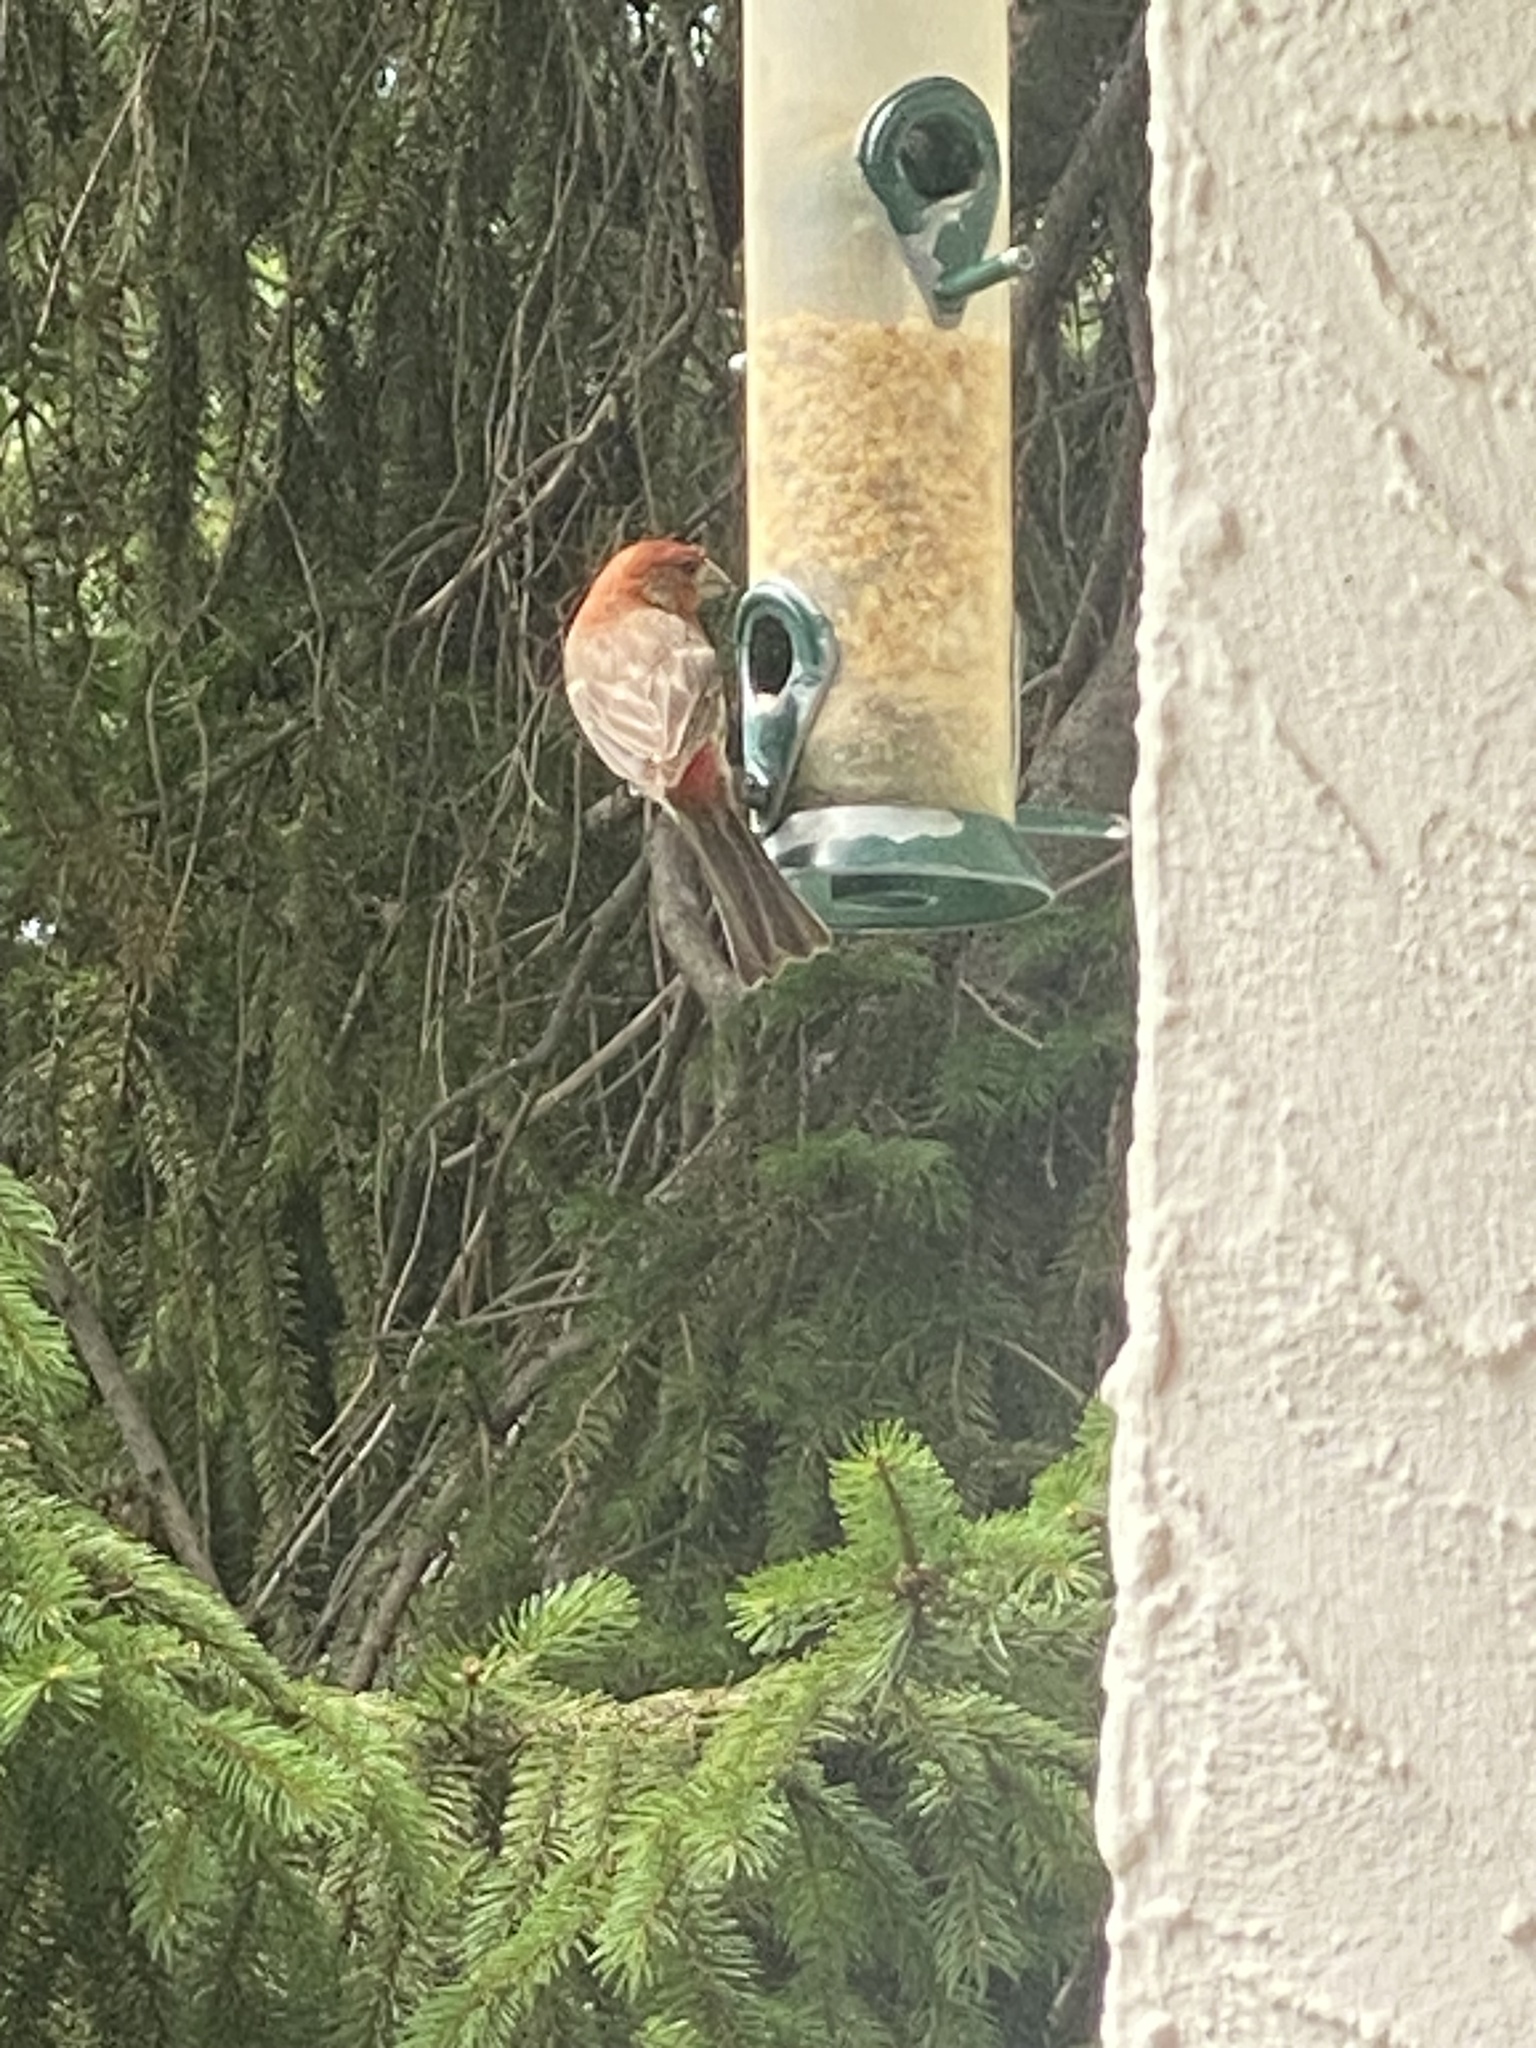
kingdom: Animalia
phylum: Chordata
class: Aves
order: Passeriformes
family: Fringillidae
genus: Haemorhous
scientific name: Haemorhous mexicanus
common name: House finch
